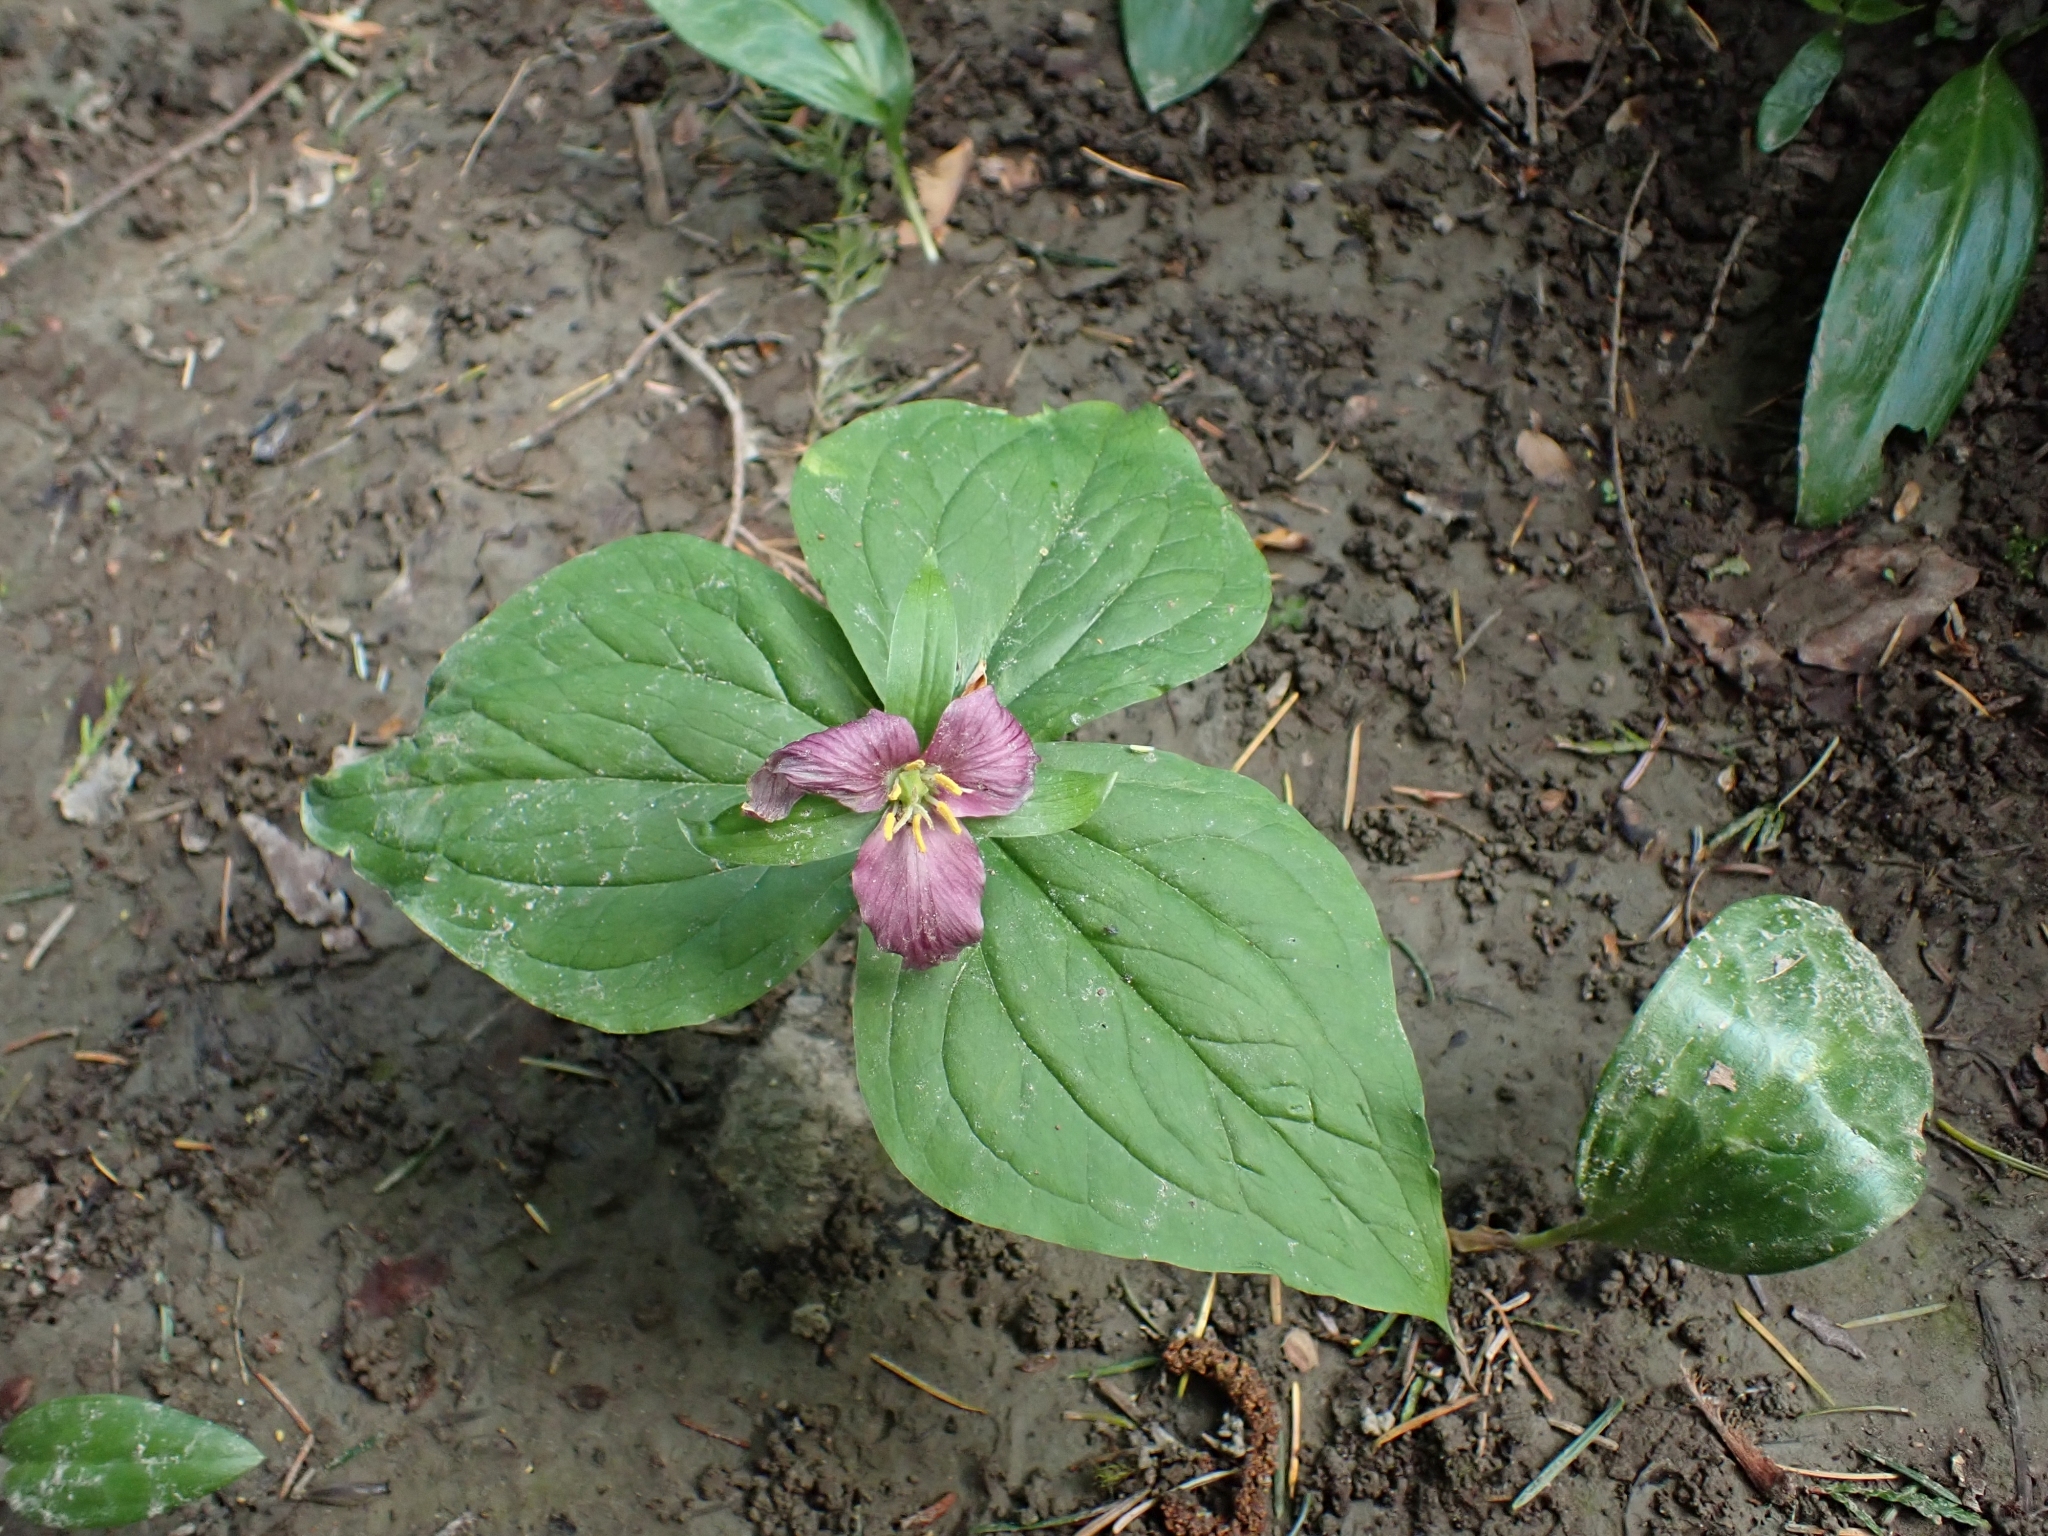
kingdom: Plantae
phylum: Tracheophyta
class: Liliopsida
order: Liliales
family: Melanthiaceae
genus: Trillium
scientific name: Trillium ovatum
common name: Pacific trillium
